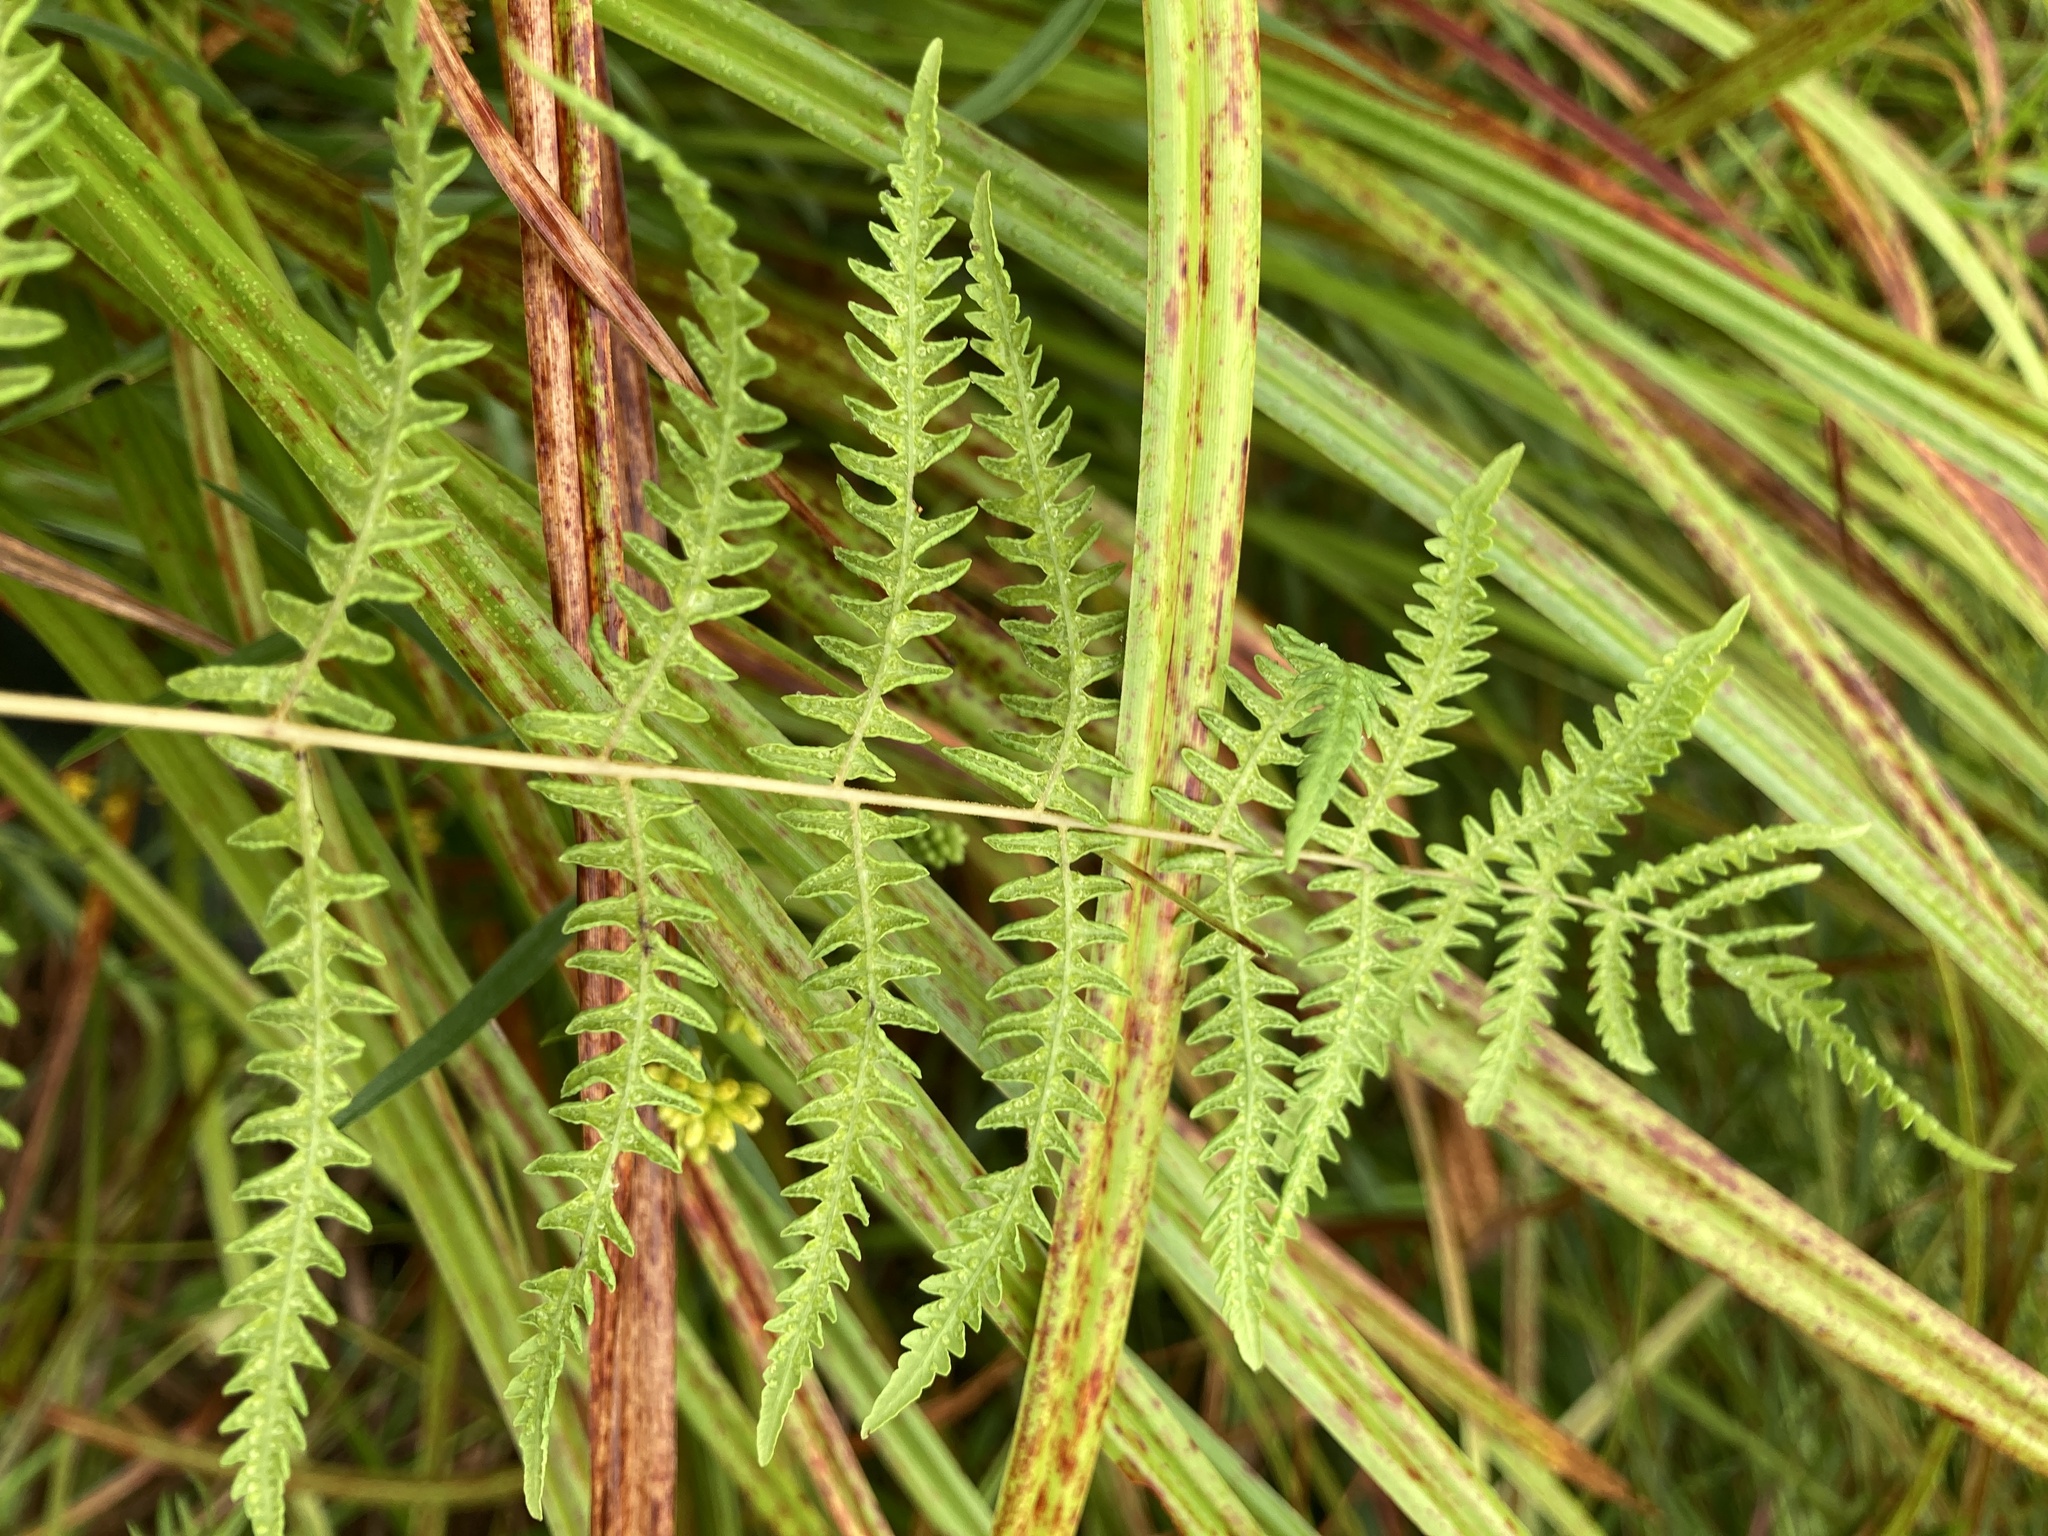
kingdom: Plantae
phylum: Tracheophyta
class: Polypodiopsida
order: Polypodiales
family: Thelypteridaceae
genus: Thelypteris
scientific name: Thelypteris palustris
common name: Marsh fern
